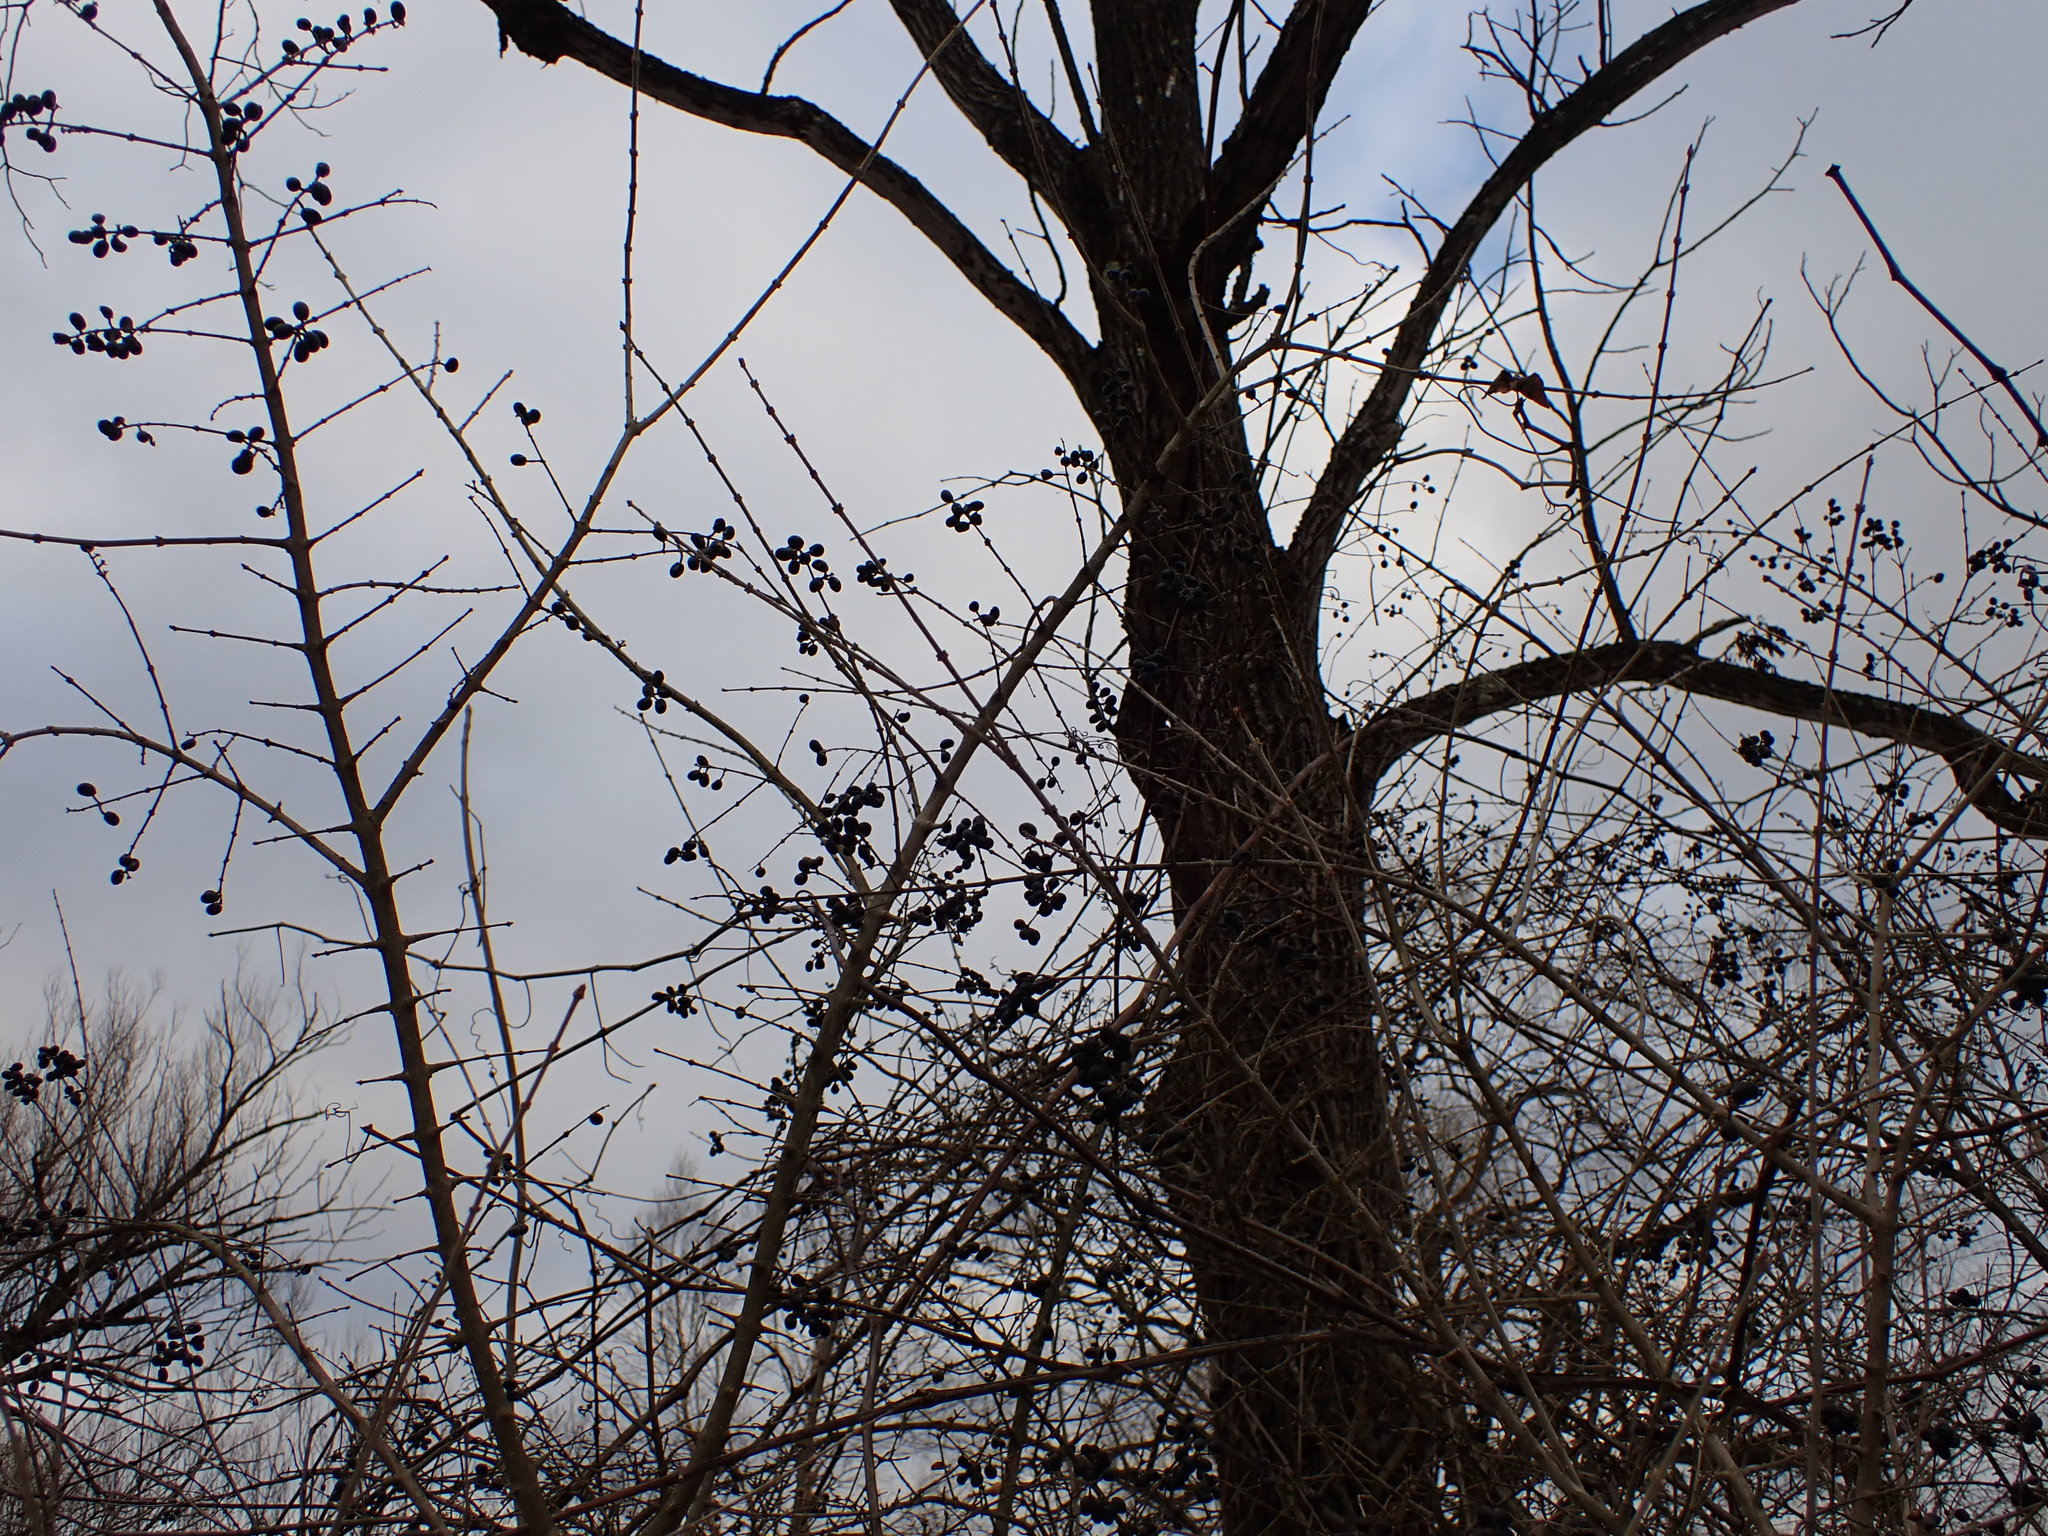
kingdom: Plantae
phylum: Tracheophyta
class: Magnoliopsida
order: Lamiales
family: Oleaceae
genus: Ligustrum
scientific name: Ligustrum obtusifolium
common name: Border privet
